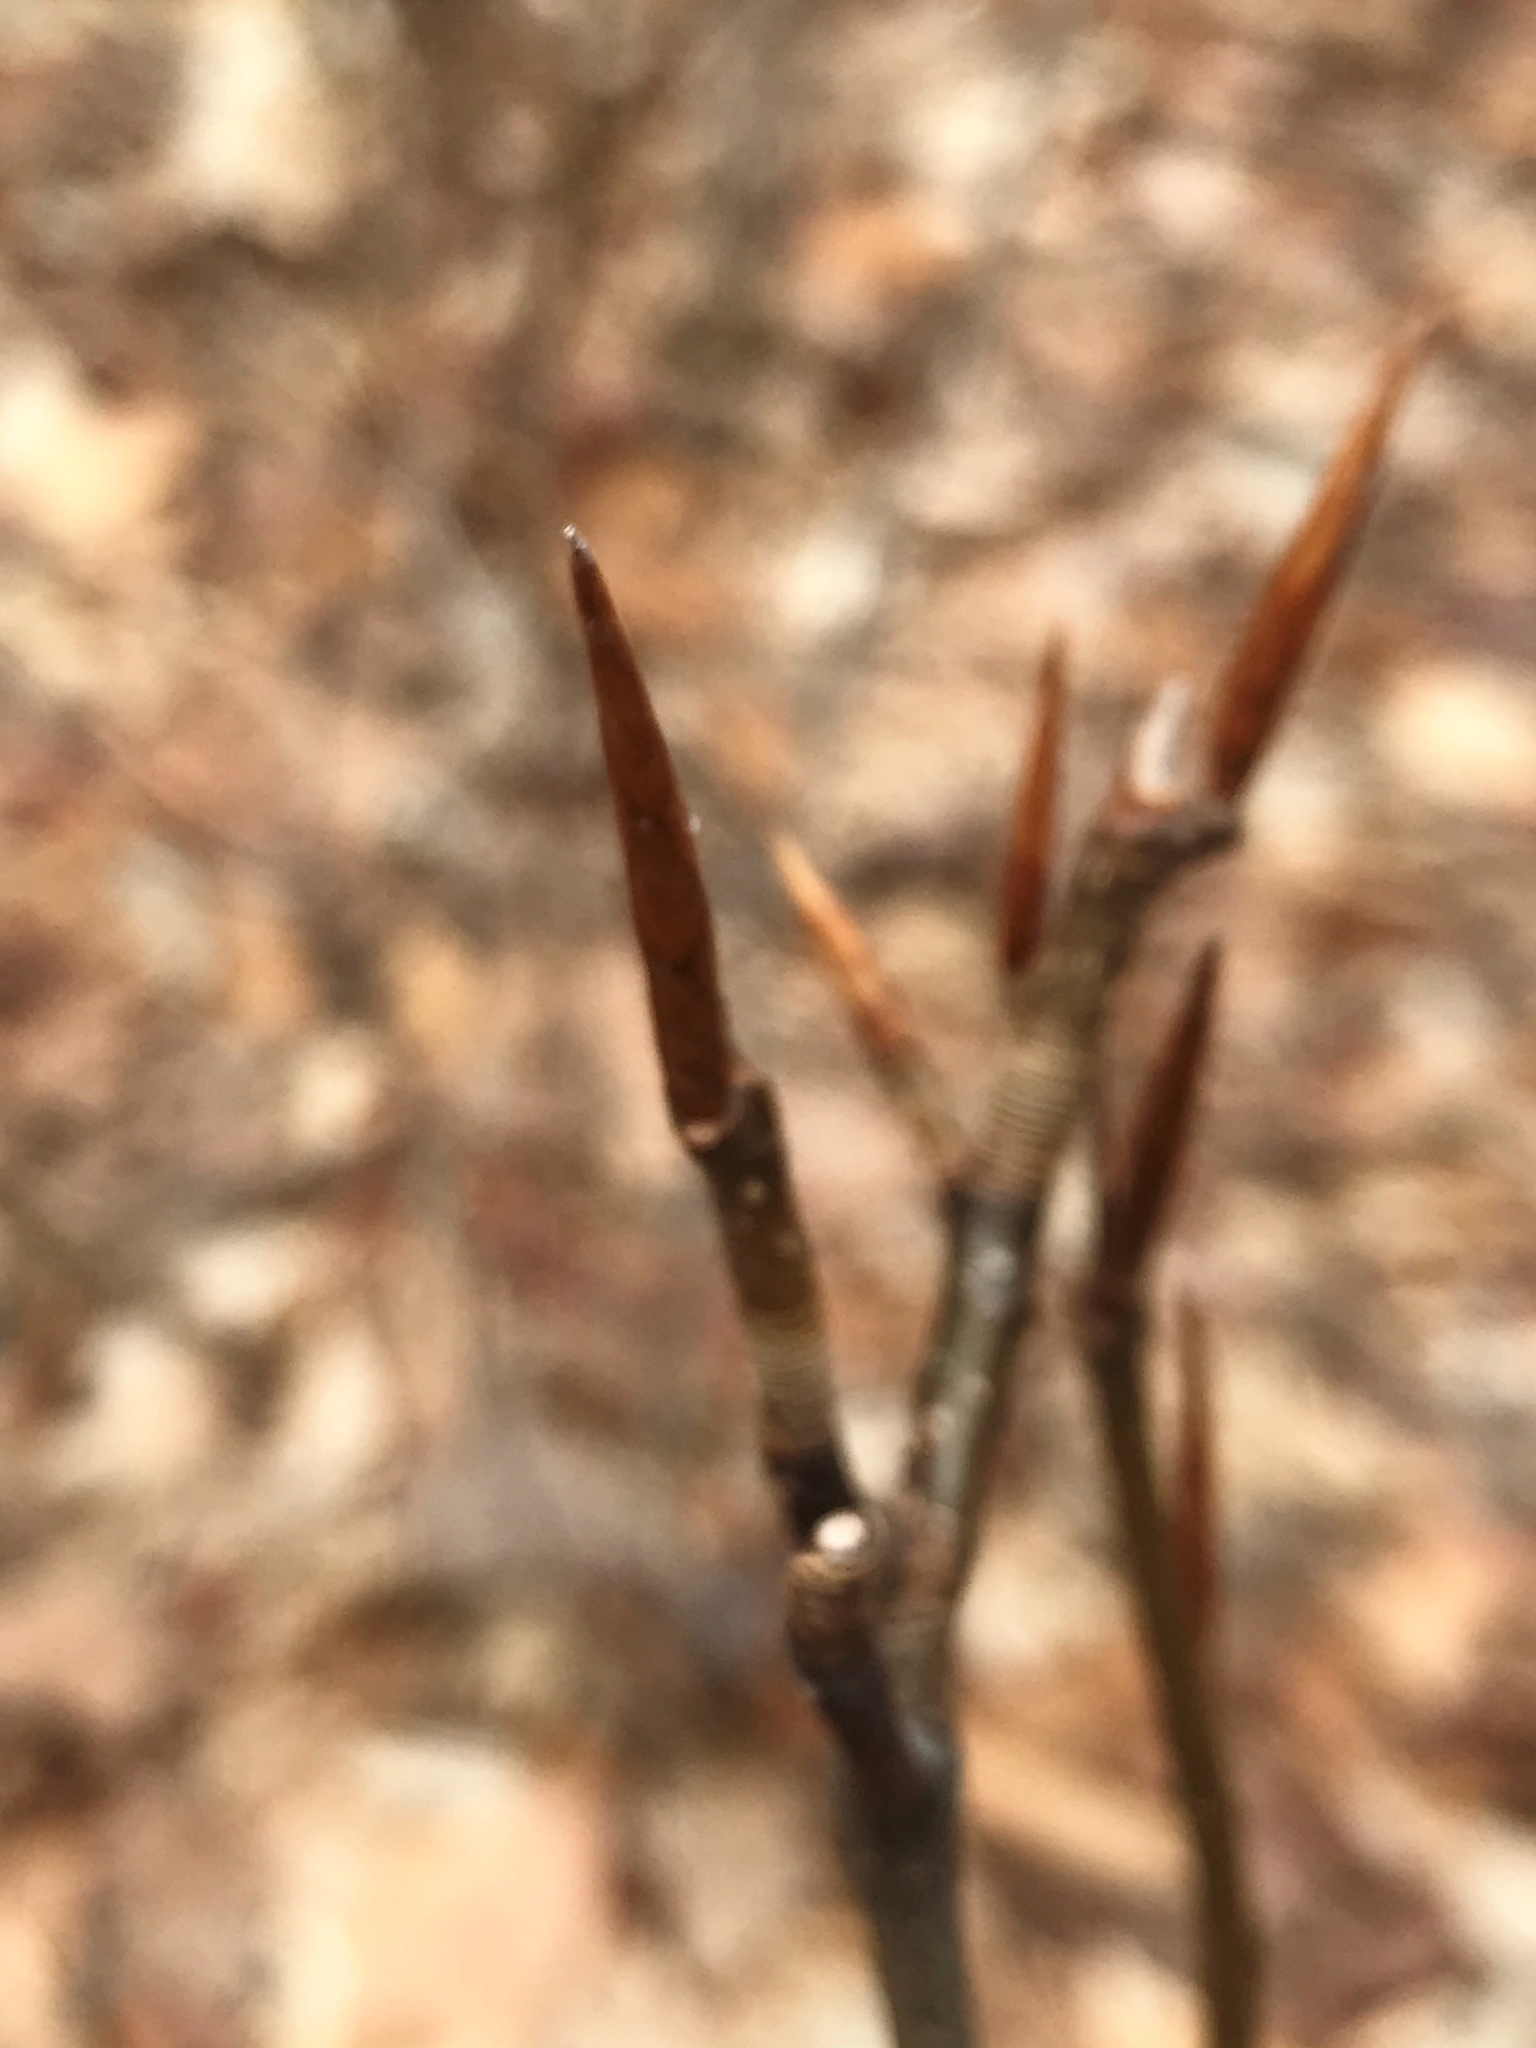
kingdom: Plantae
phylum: Tracheophyta
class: Magnoliopsida
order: Fagales
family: Fagaceae
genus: Fagus
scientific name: Fagus grandifolia
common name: American beech
